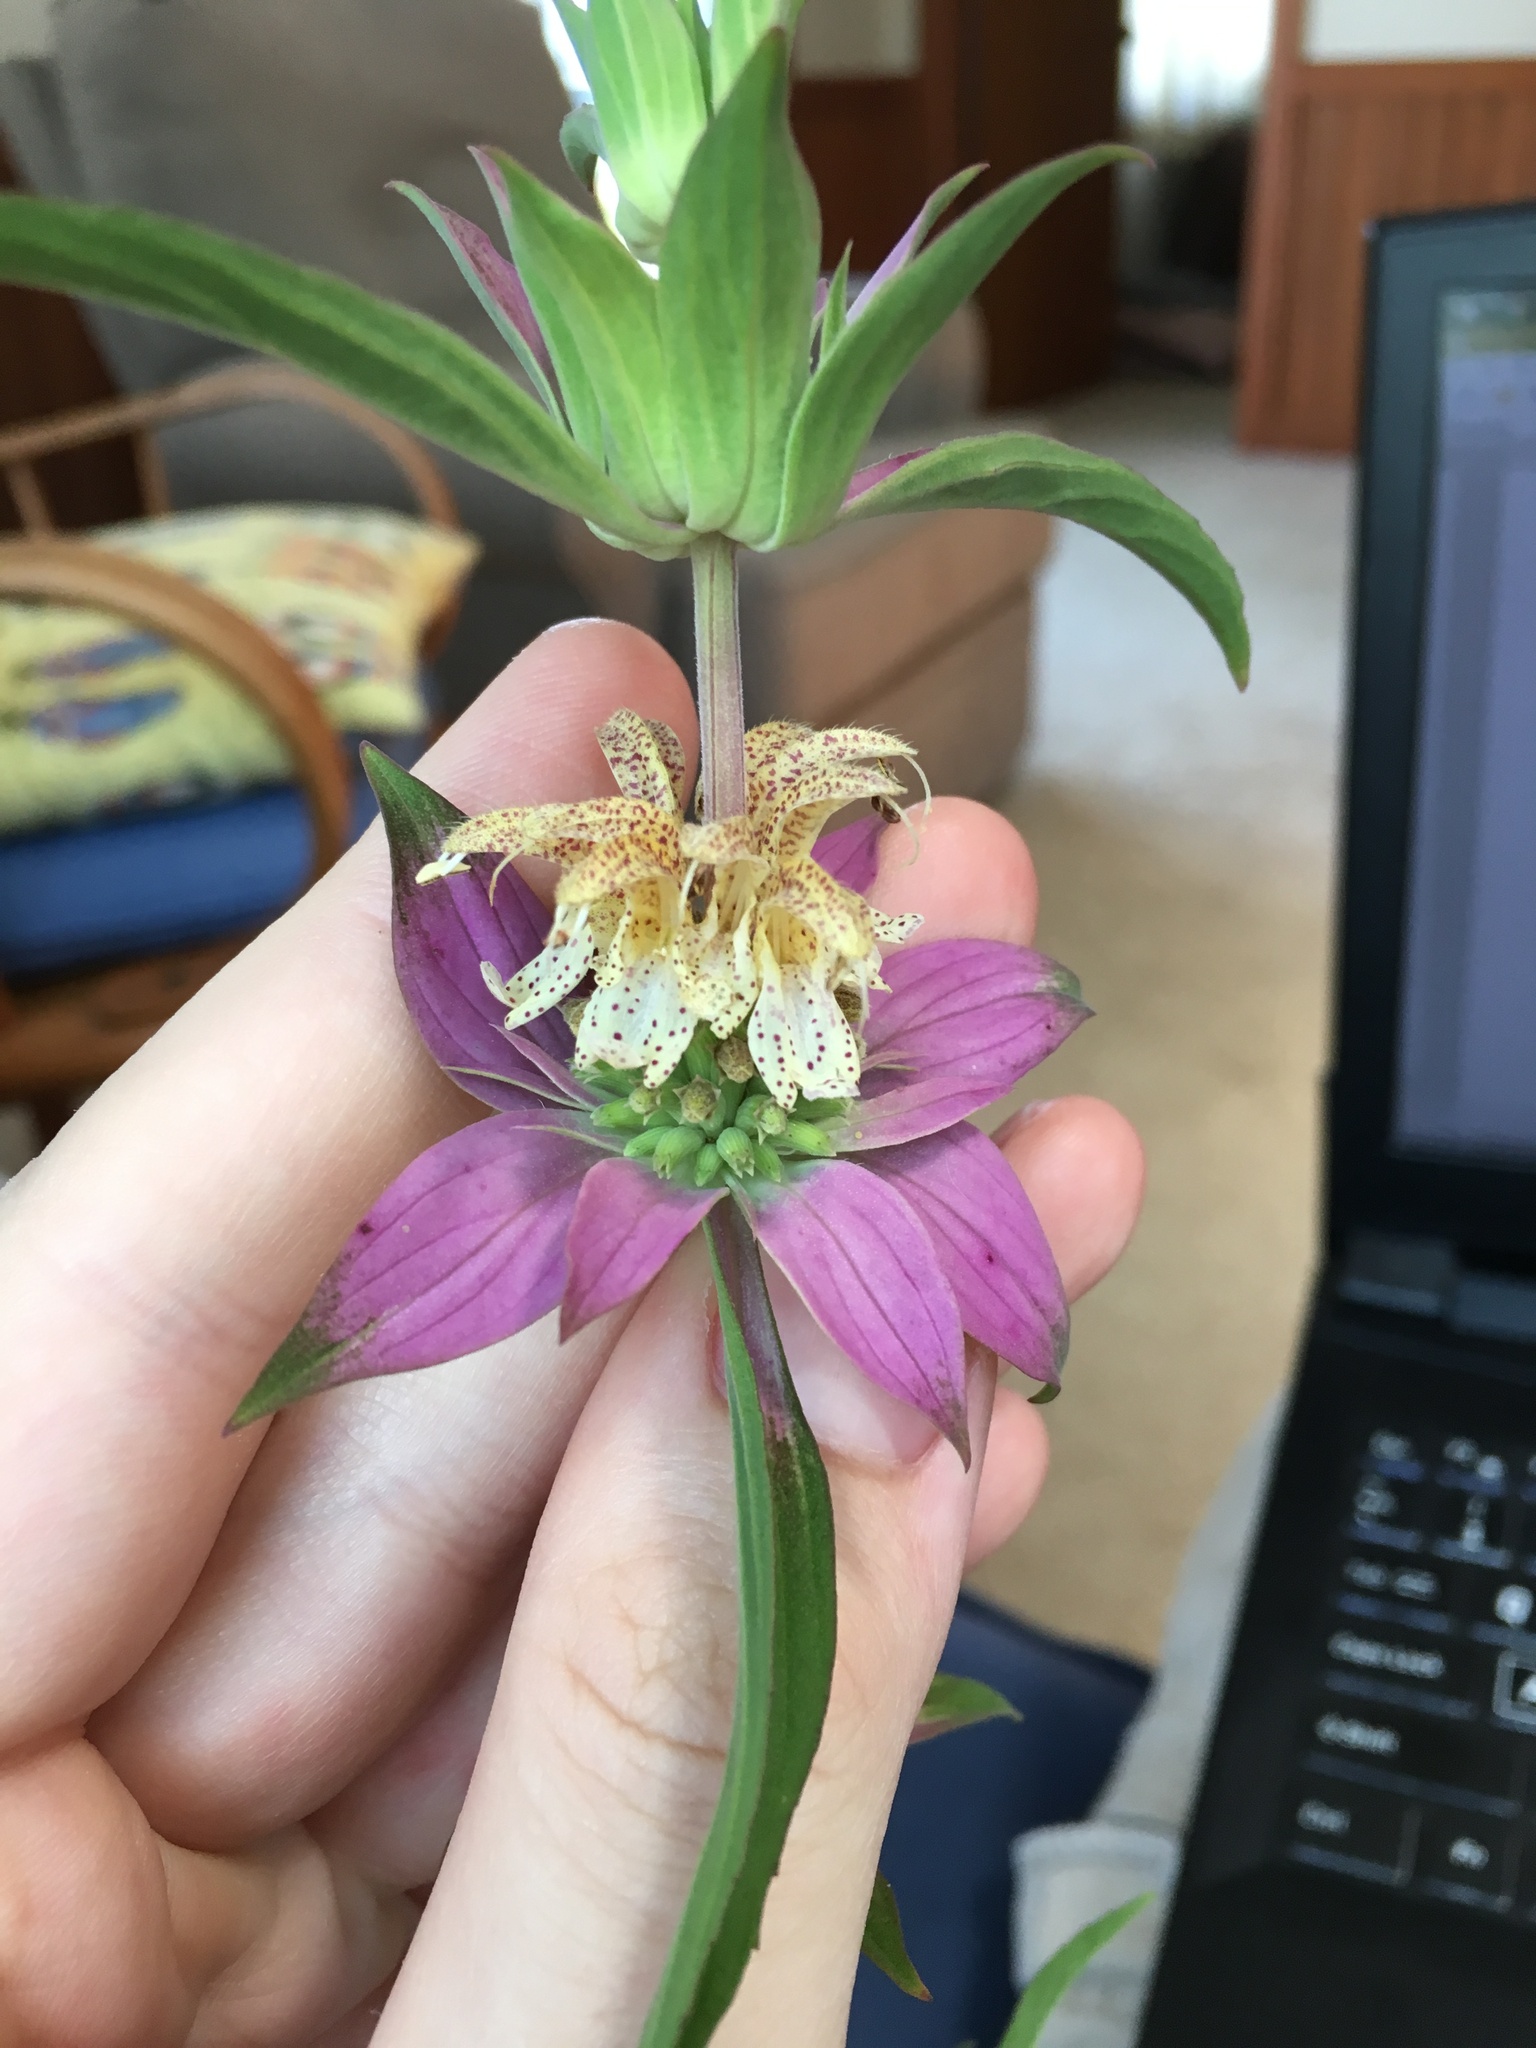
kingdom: Plantae
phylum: Tracheophyta
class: Magnoliopsida
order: Lamiales
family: Lamiaceae
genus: Monarda
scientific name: Monarda punctata
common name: Dotted monarda
